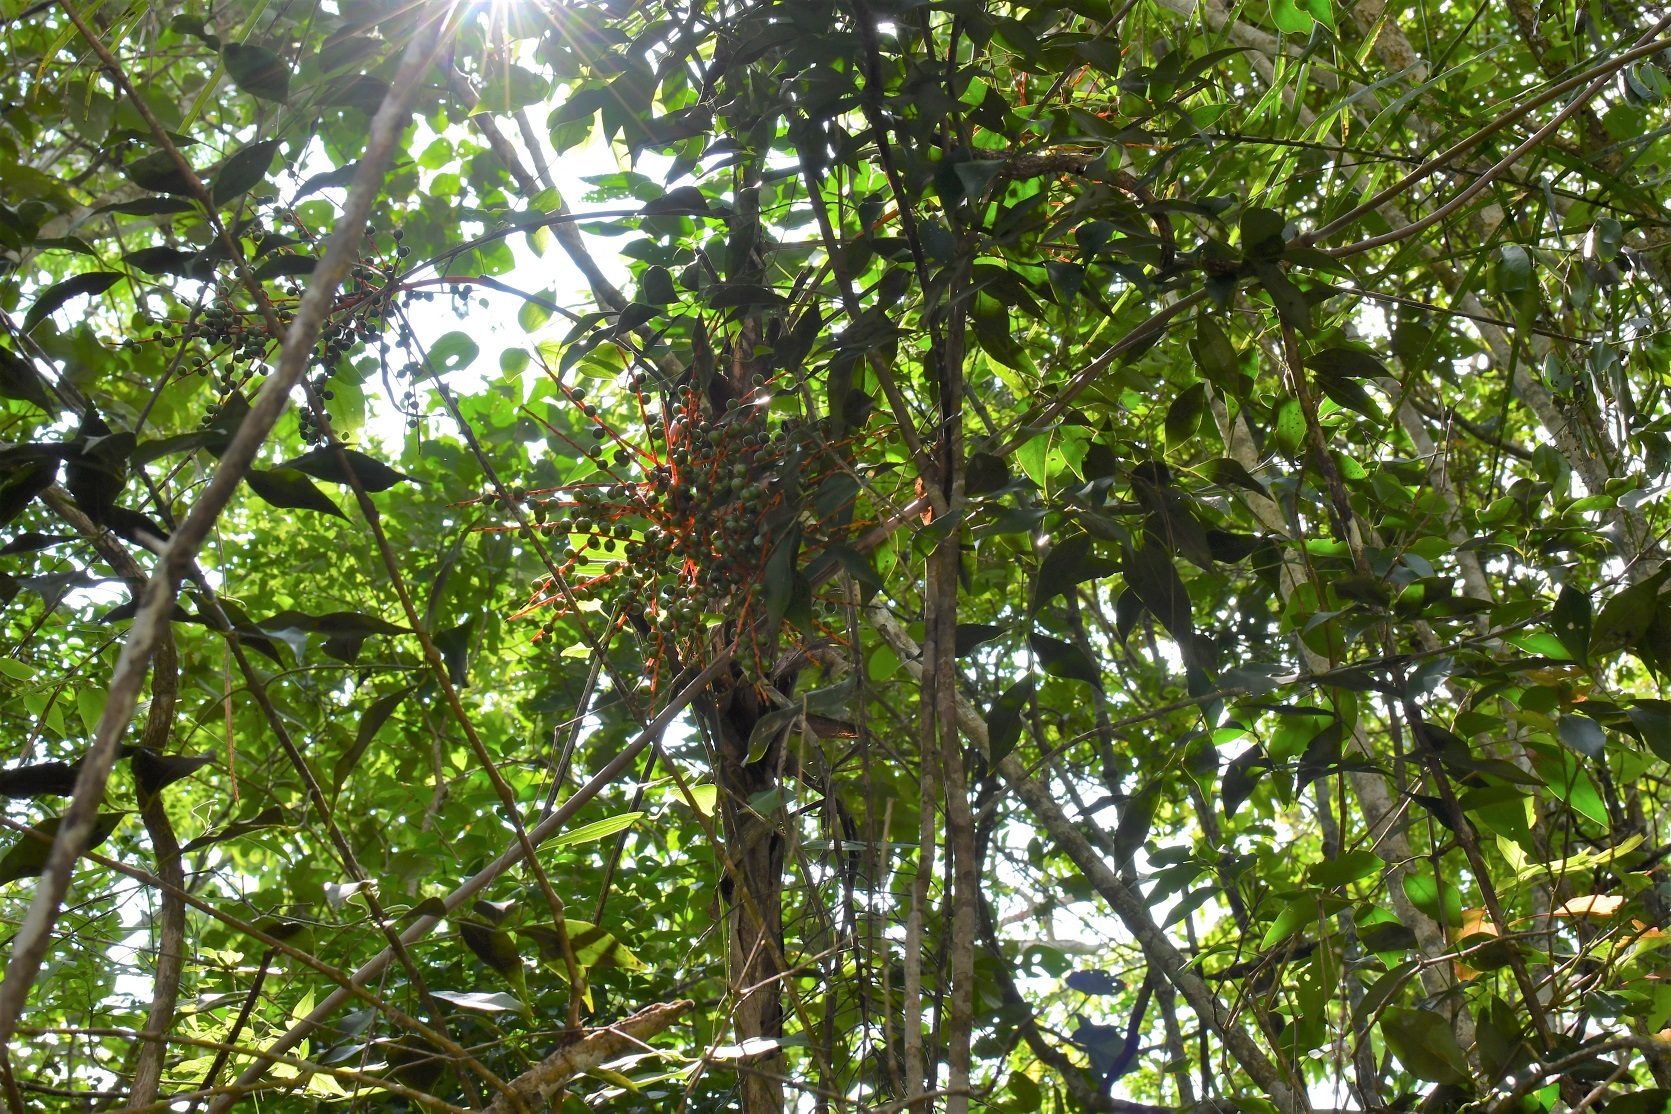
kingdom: Plantae
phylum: Tracheophyta
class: Liliopsida
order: Arecales
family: Arecaceae
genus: Chamaedorea
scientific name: Chamaedorea glaucifolia
